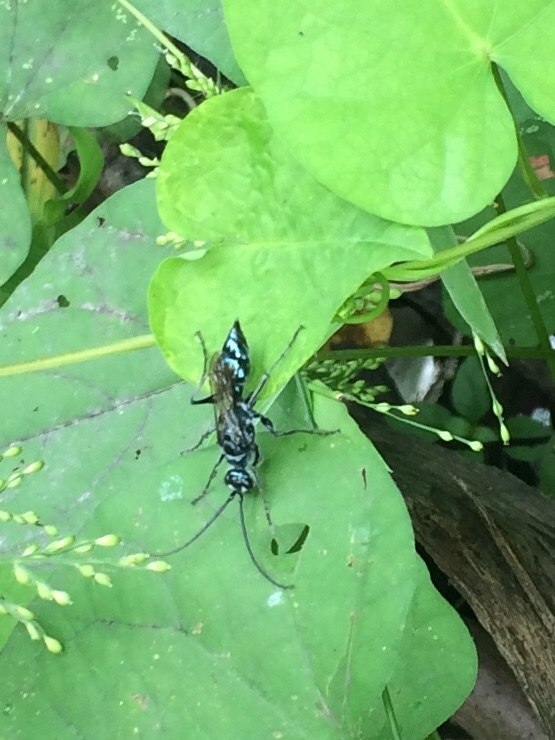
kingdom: Animalia
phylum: Arthropoda
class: Insecta
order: Hymenoptera
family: Ampulicidae
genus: Trirogma
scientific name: Trirogma caerulea
